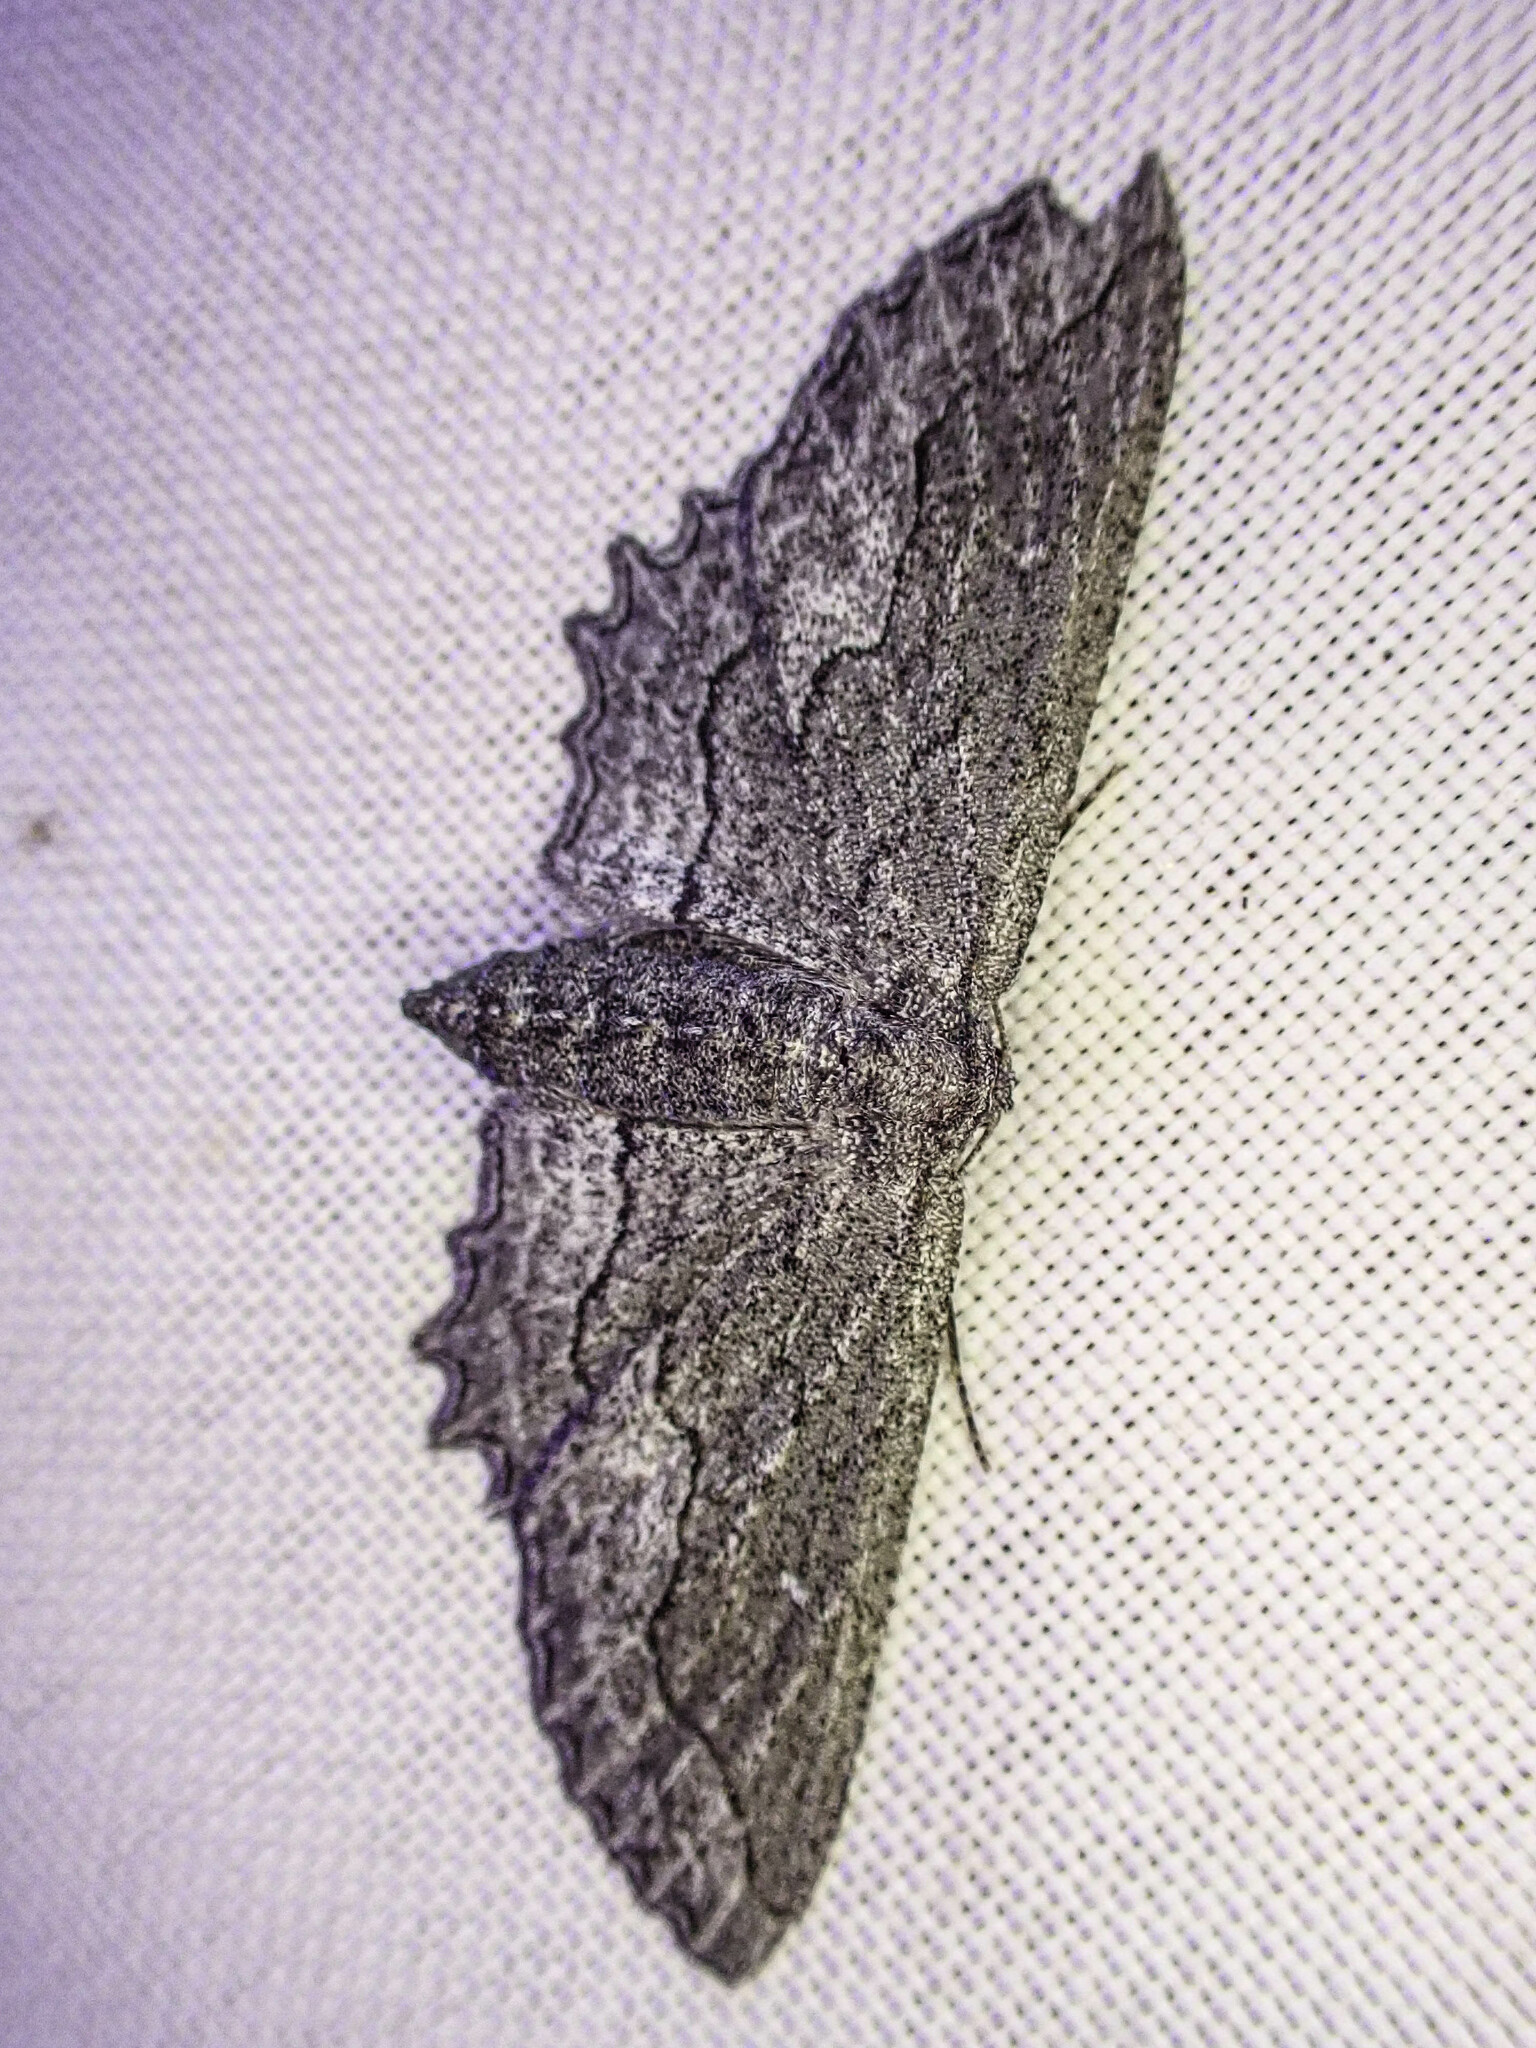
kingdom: Animalia
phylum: Arthropoda
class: Insecta
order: Lepidoptera
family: Geometridae
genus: Aethaloida
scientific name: Aethaloida packardaria
